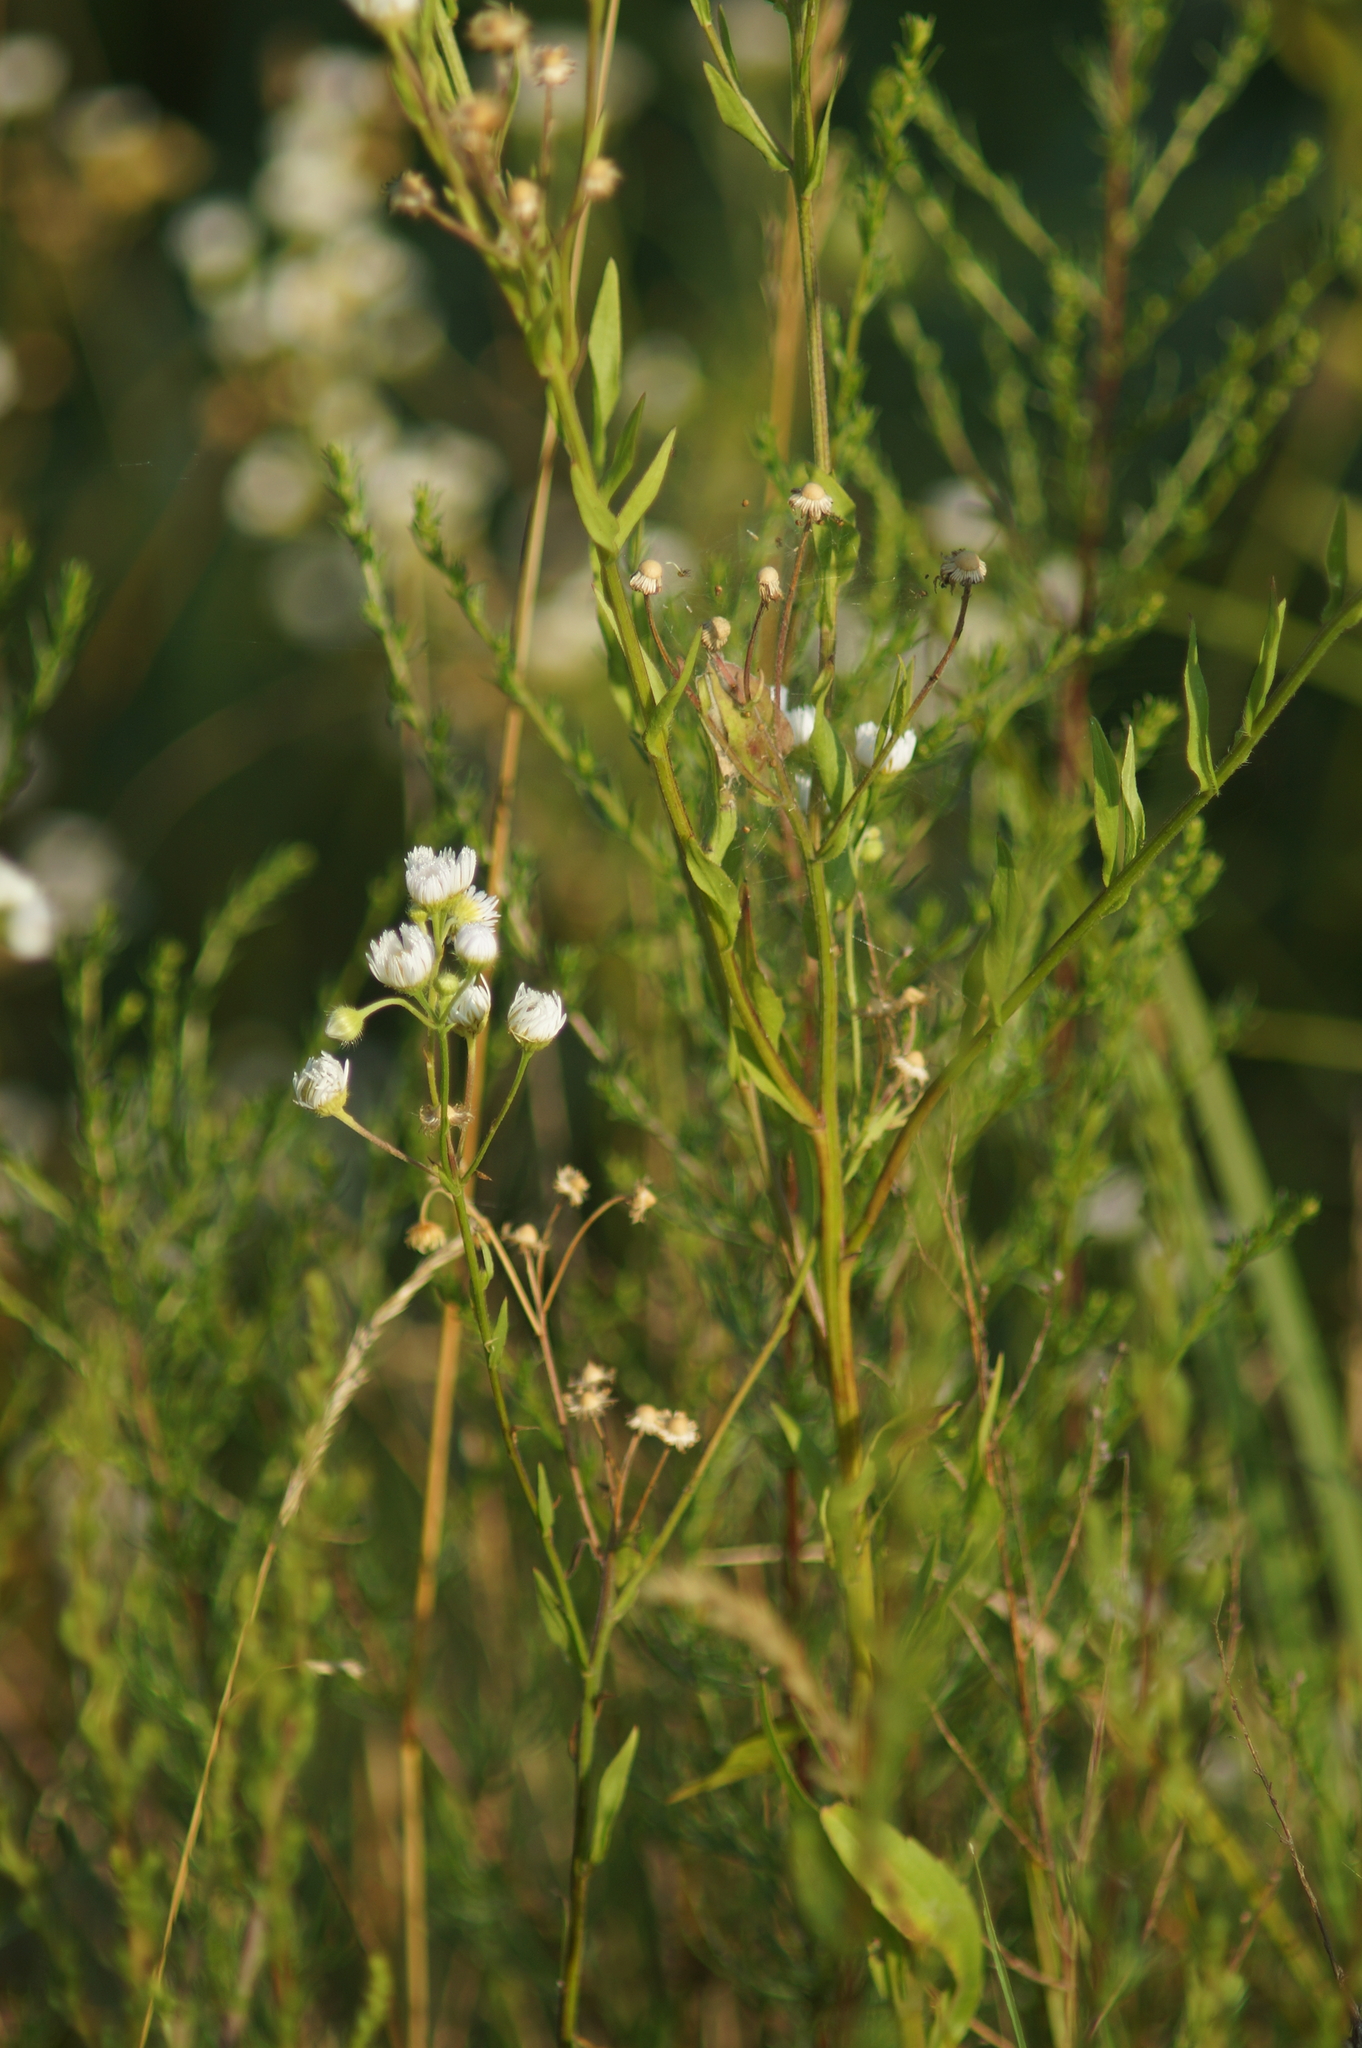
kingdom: Plantae
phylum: Tracheophyta
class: Magnoliopsida
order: Asterales
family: Asteraceae
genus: Erigeron
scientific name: Erigeron annuus
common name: Tall fleabane
